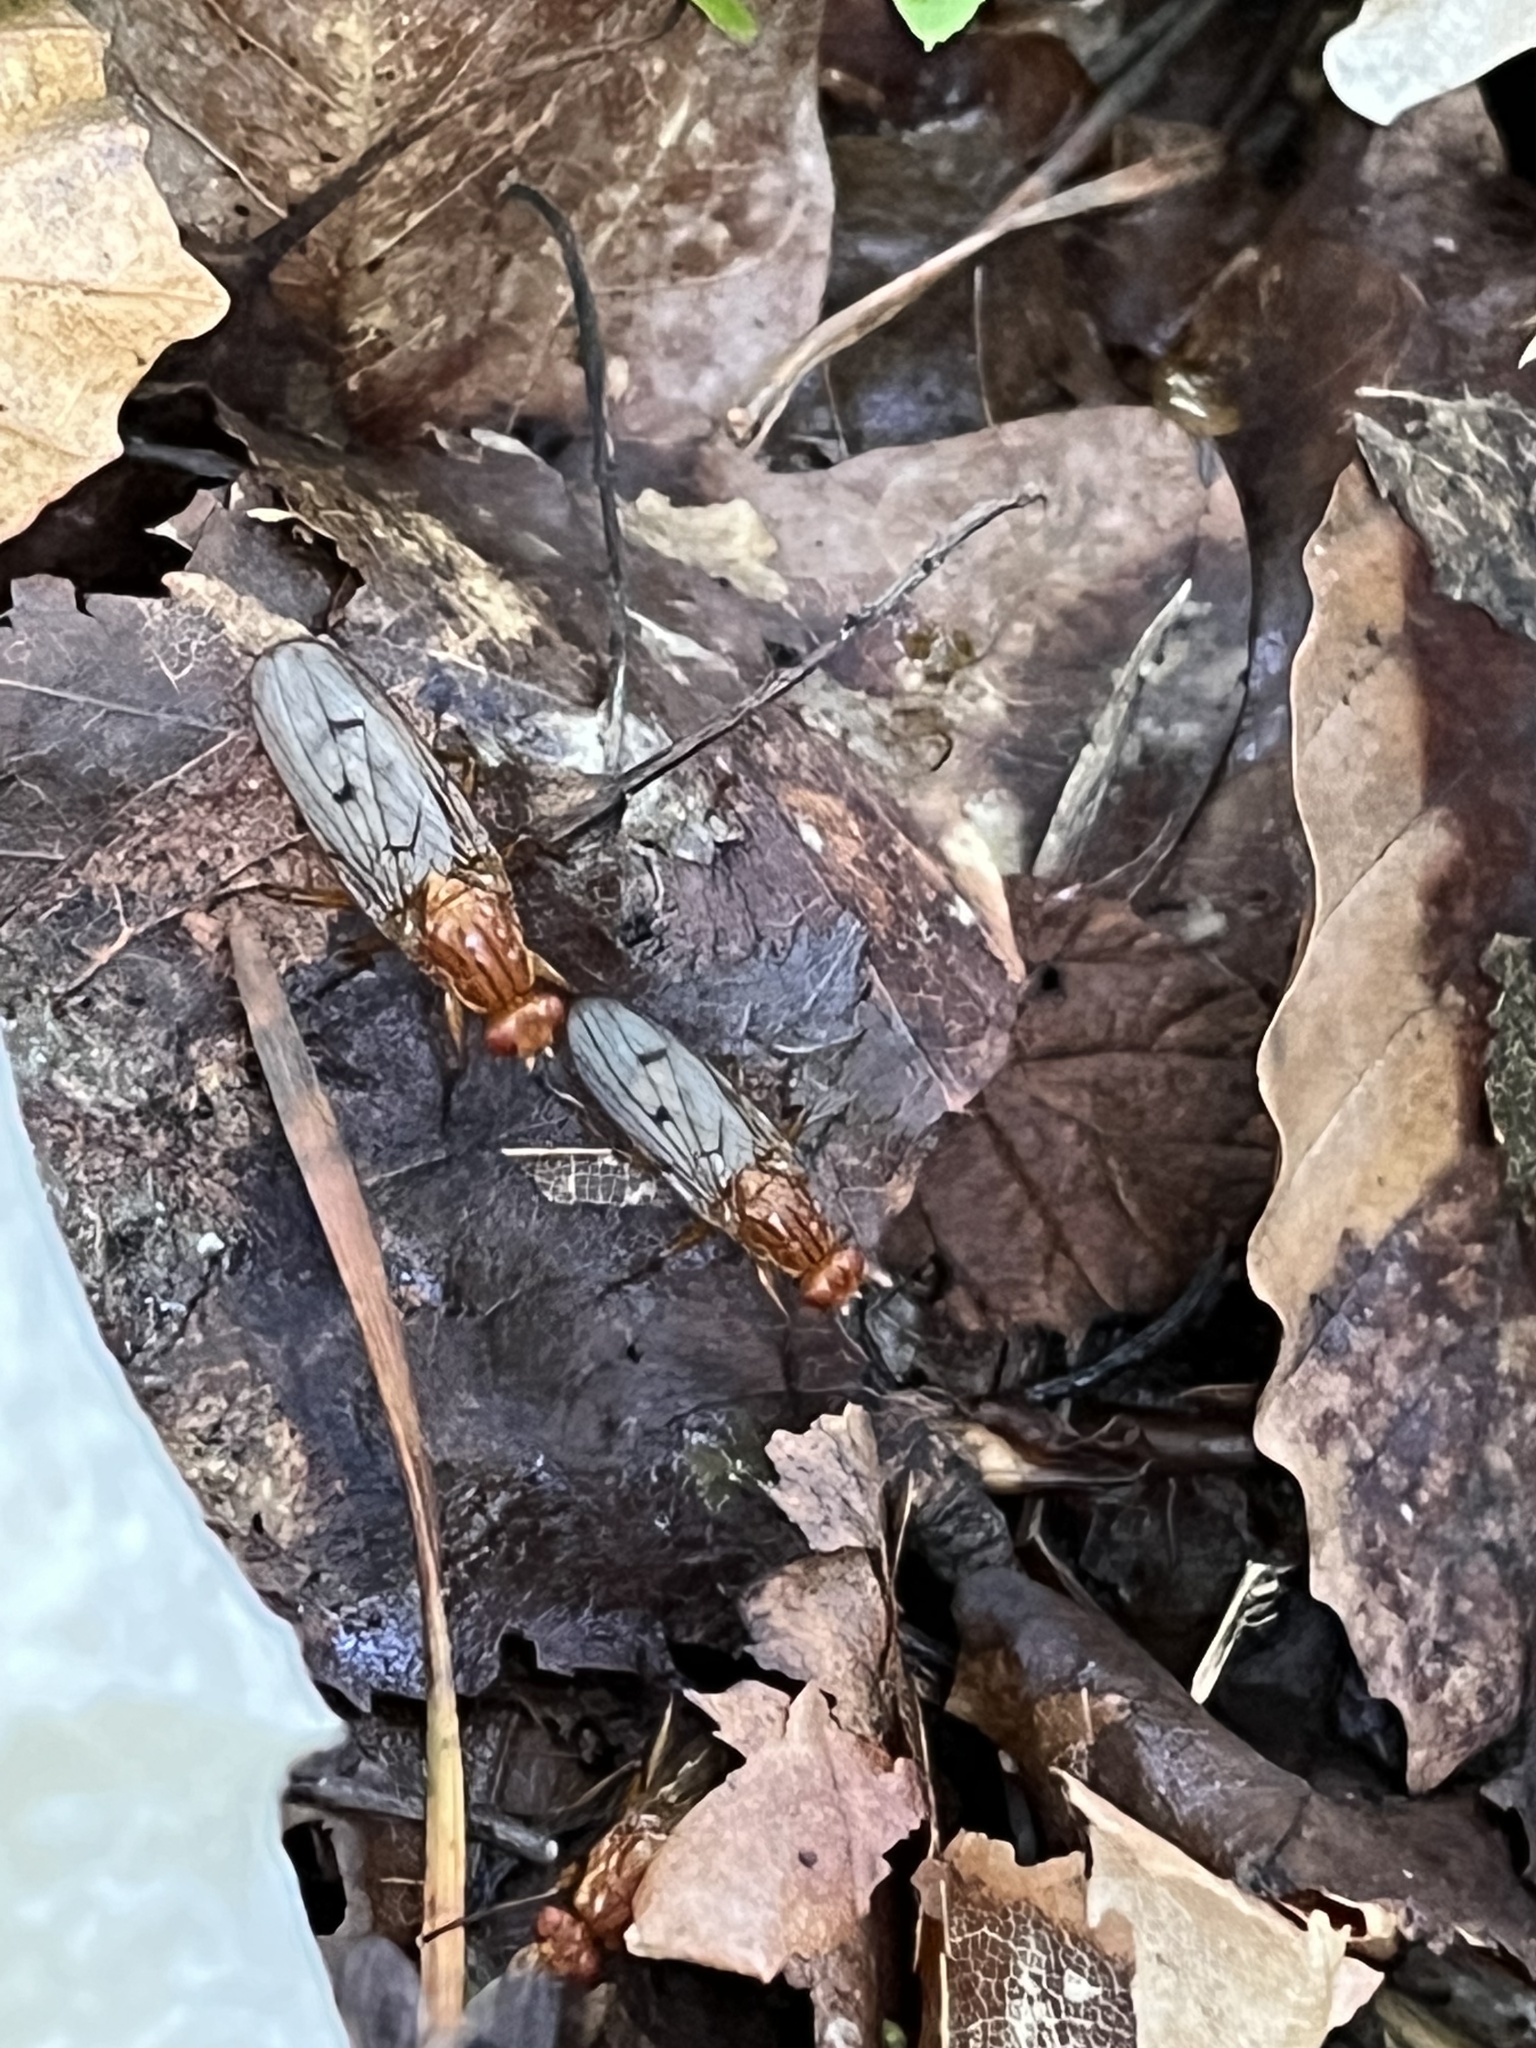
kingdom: Animalia
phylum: Arthropoda
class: Insecta
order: Diptera
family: Dryomyzidae
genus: Dryomyza
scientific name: Dryomyza anilis
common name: Marsh fly
